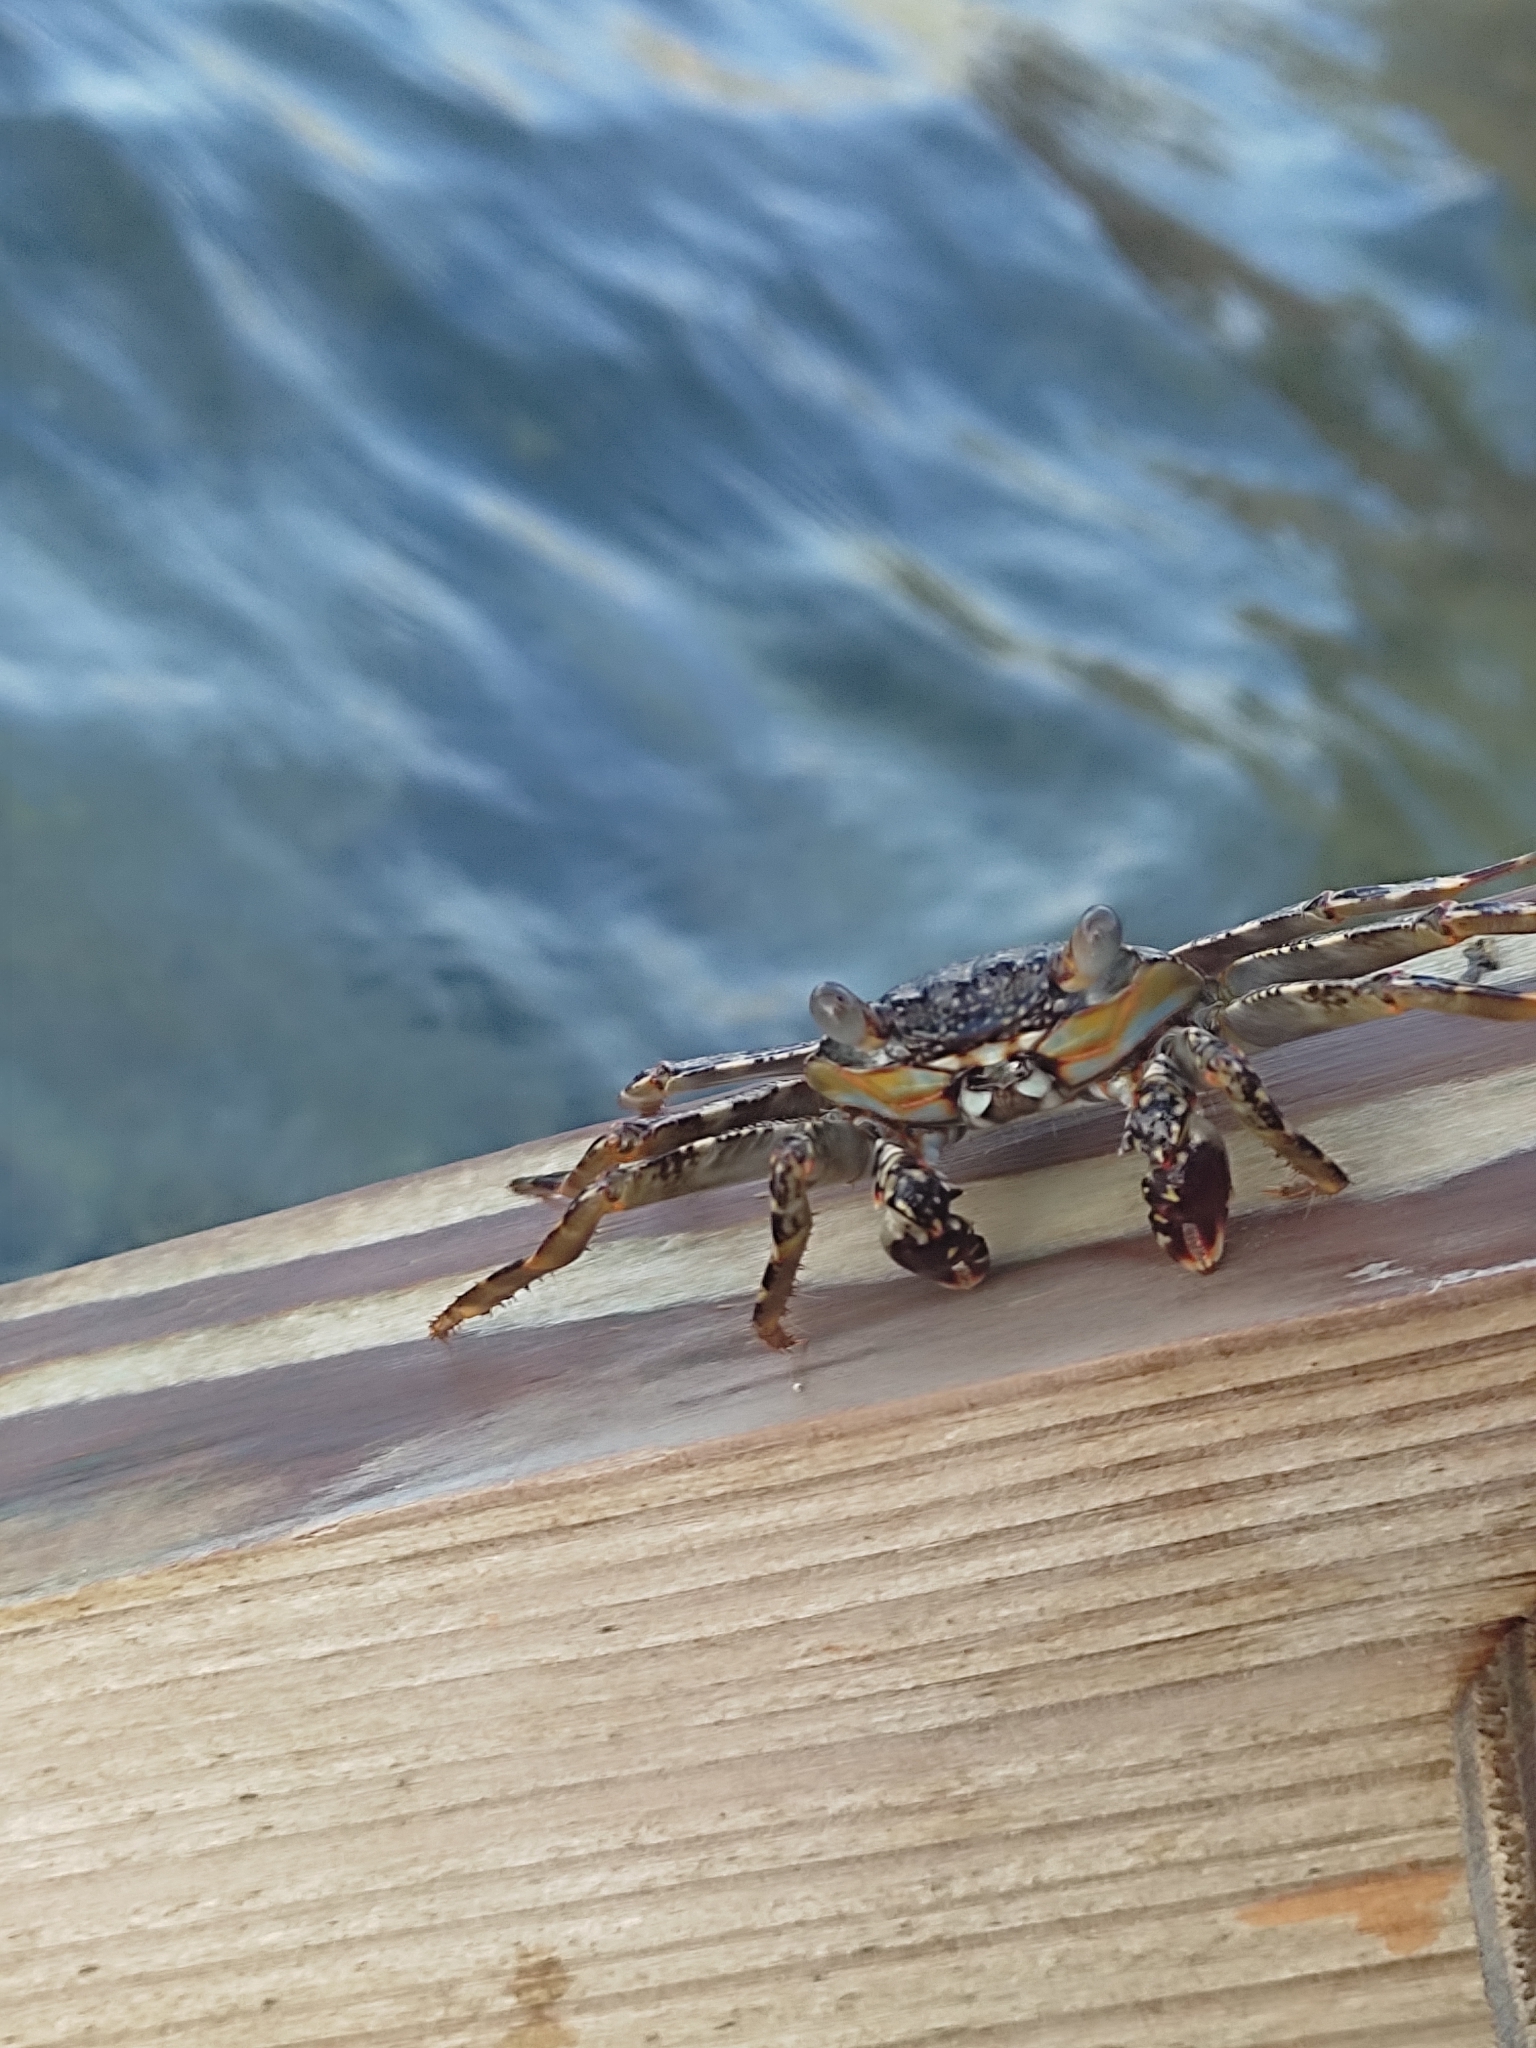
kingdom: Animalia
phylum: Arthropoda
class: Malacostraca
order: Decapoda
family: Grapsidae
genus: Grapsus
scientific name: Grapsus grapsus
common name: Sally lightfoot
